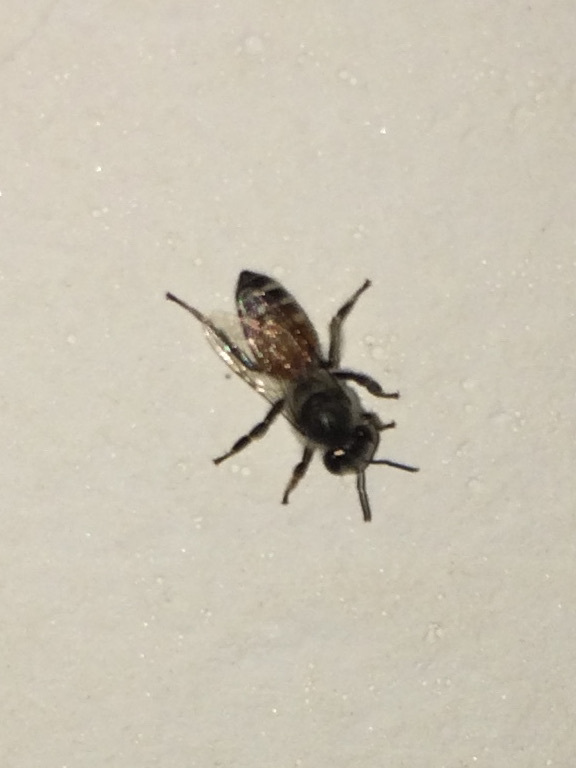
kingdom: Animalia
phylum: Arthropoda
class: Insecta
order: Hymenoptera
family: Apidae
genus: Apis
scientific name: Apis florea
